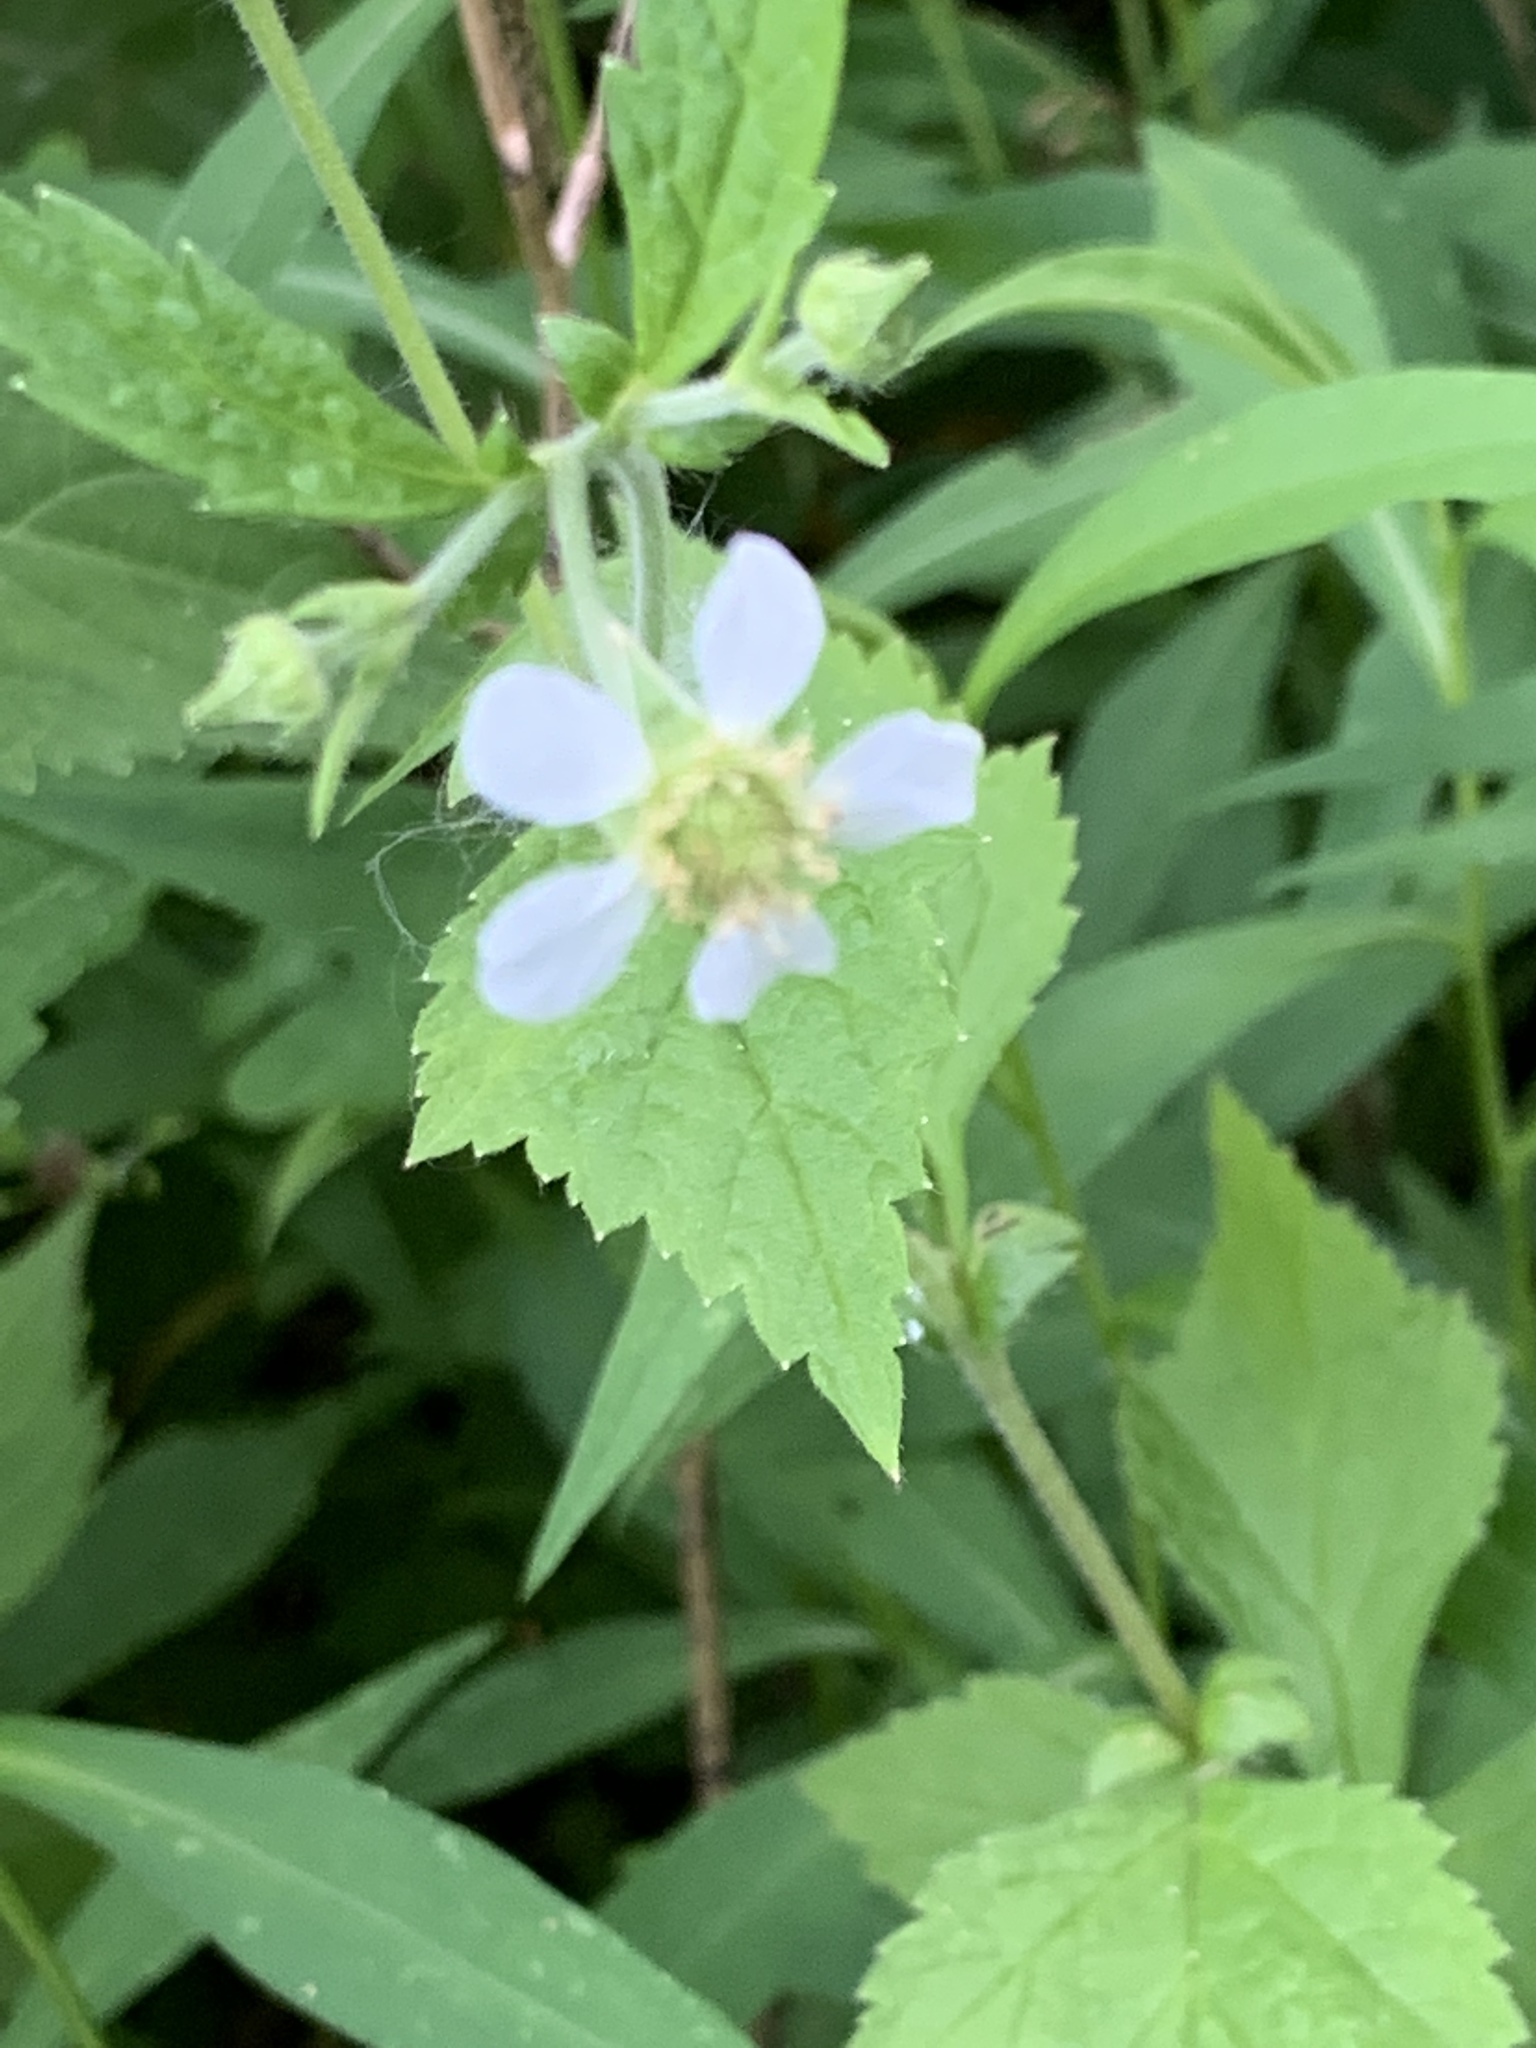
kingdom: Plantae
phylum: Tracheophyta
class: Magnoliopsida
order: Rosales
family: Rosaceae
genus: Geum
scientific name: Geum canadense
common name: White avens
